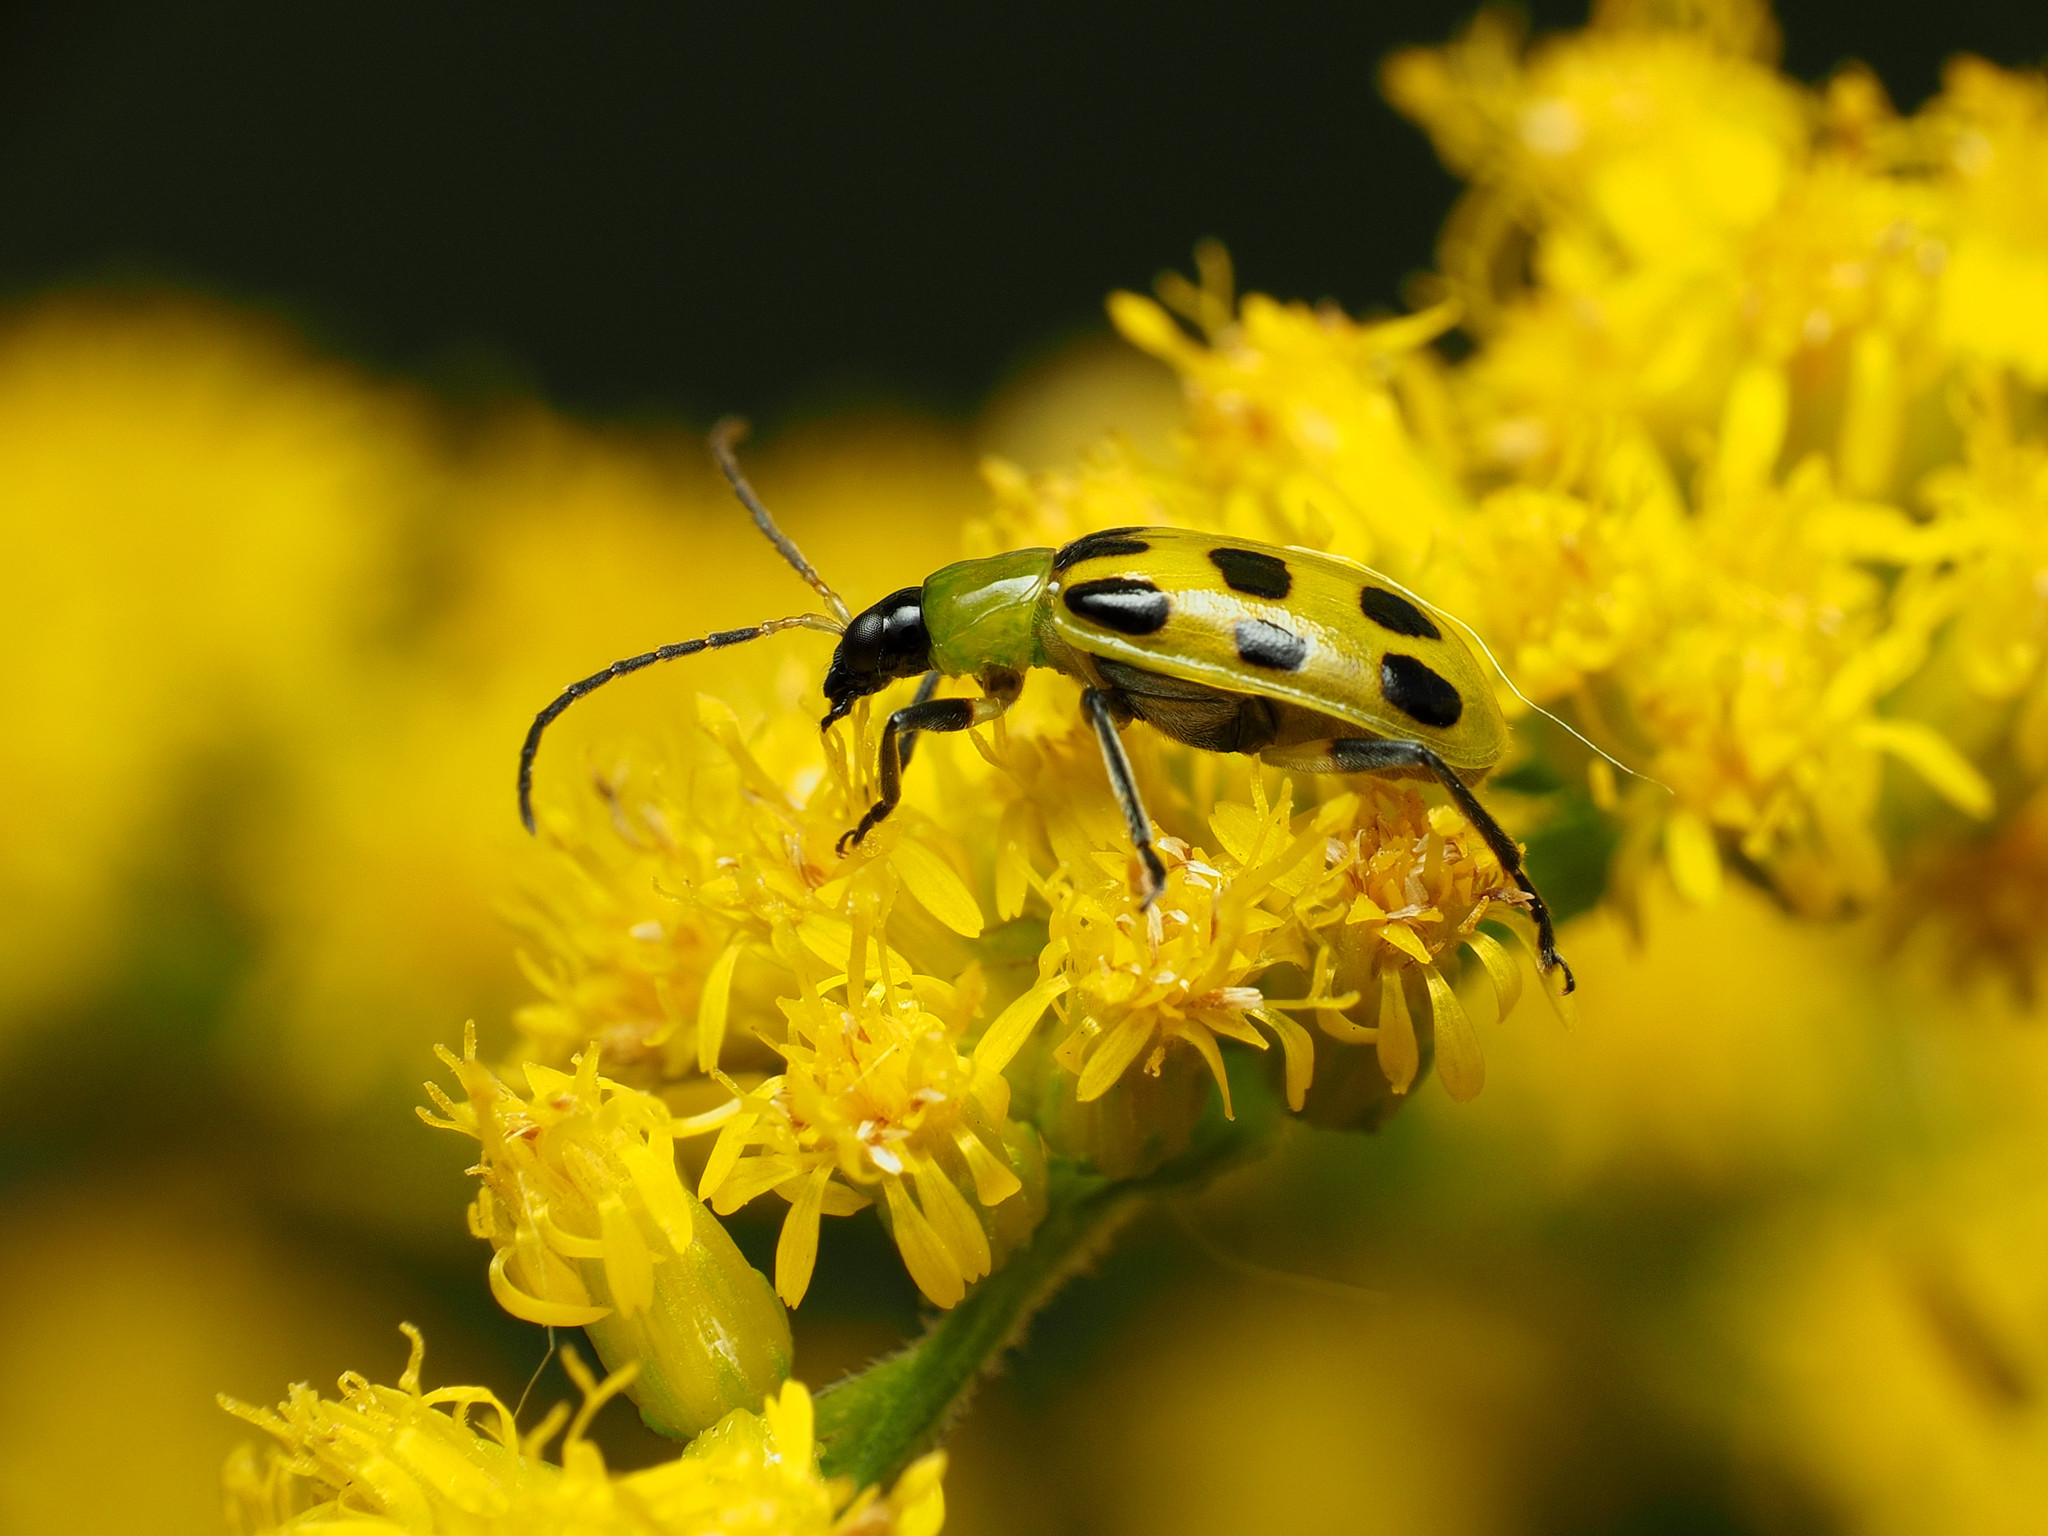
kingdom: Animalia
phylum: Arthropoda
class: Insecta
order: Coleoptera
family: Chrysomelidae
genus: Diabrotica
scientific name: Diabrotica undecimpunctata
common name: Spotted cucumber beetle
